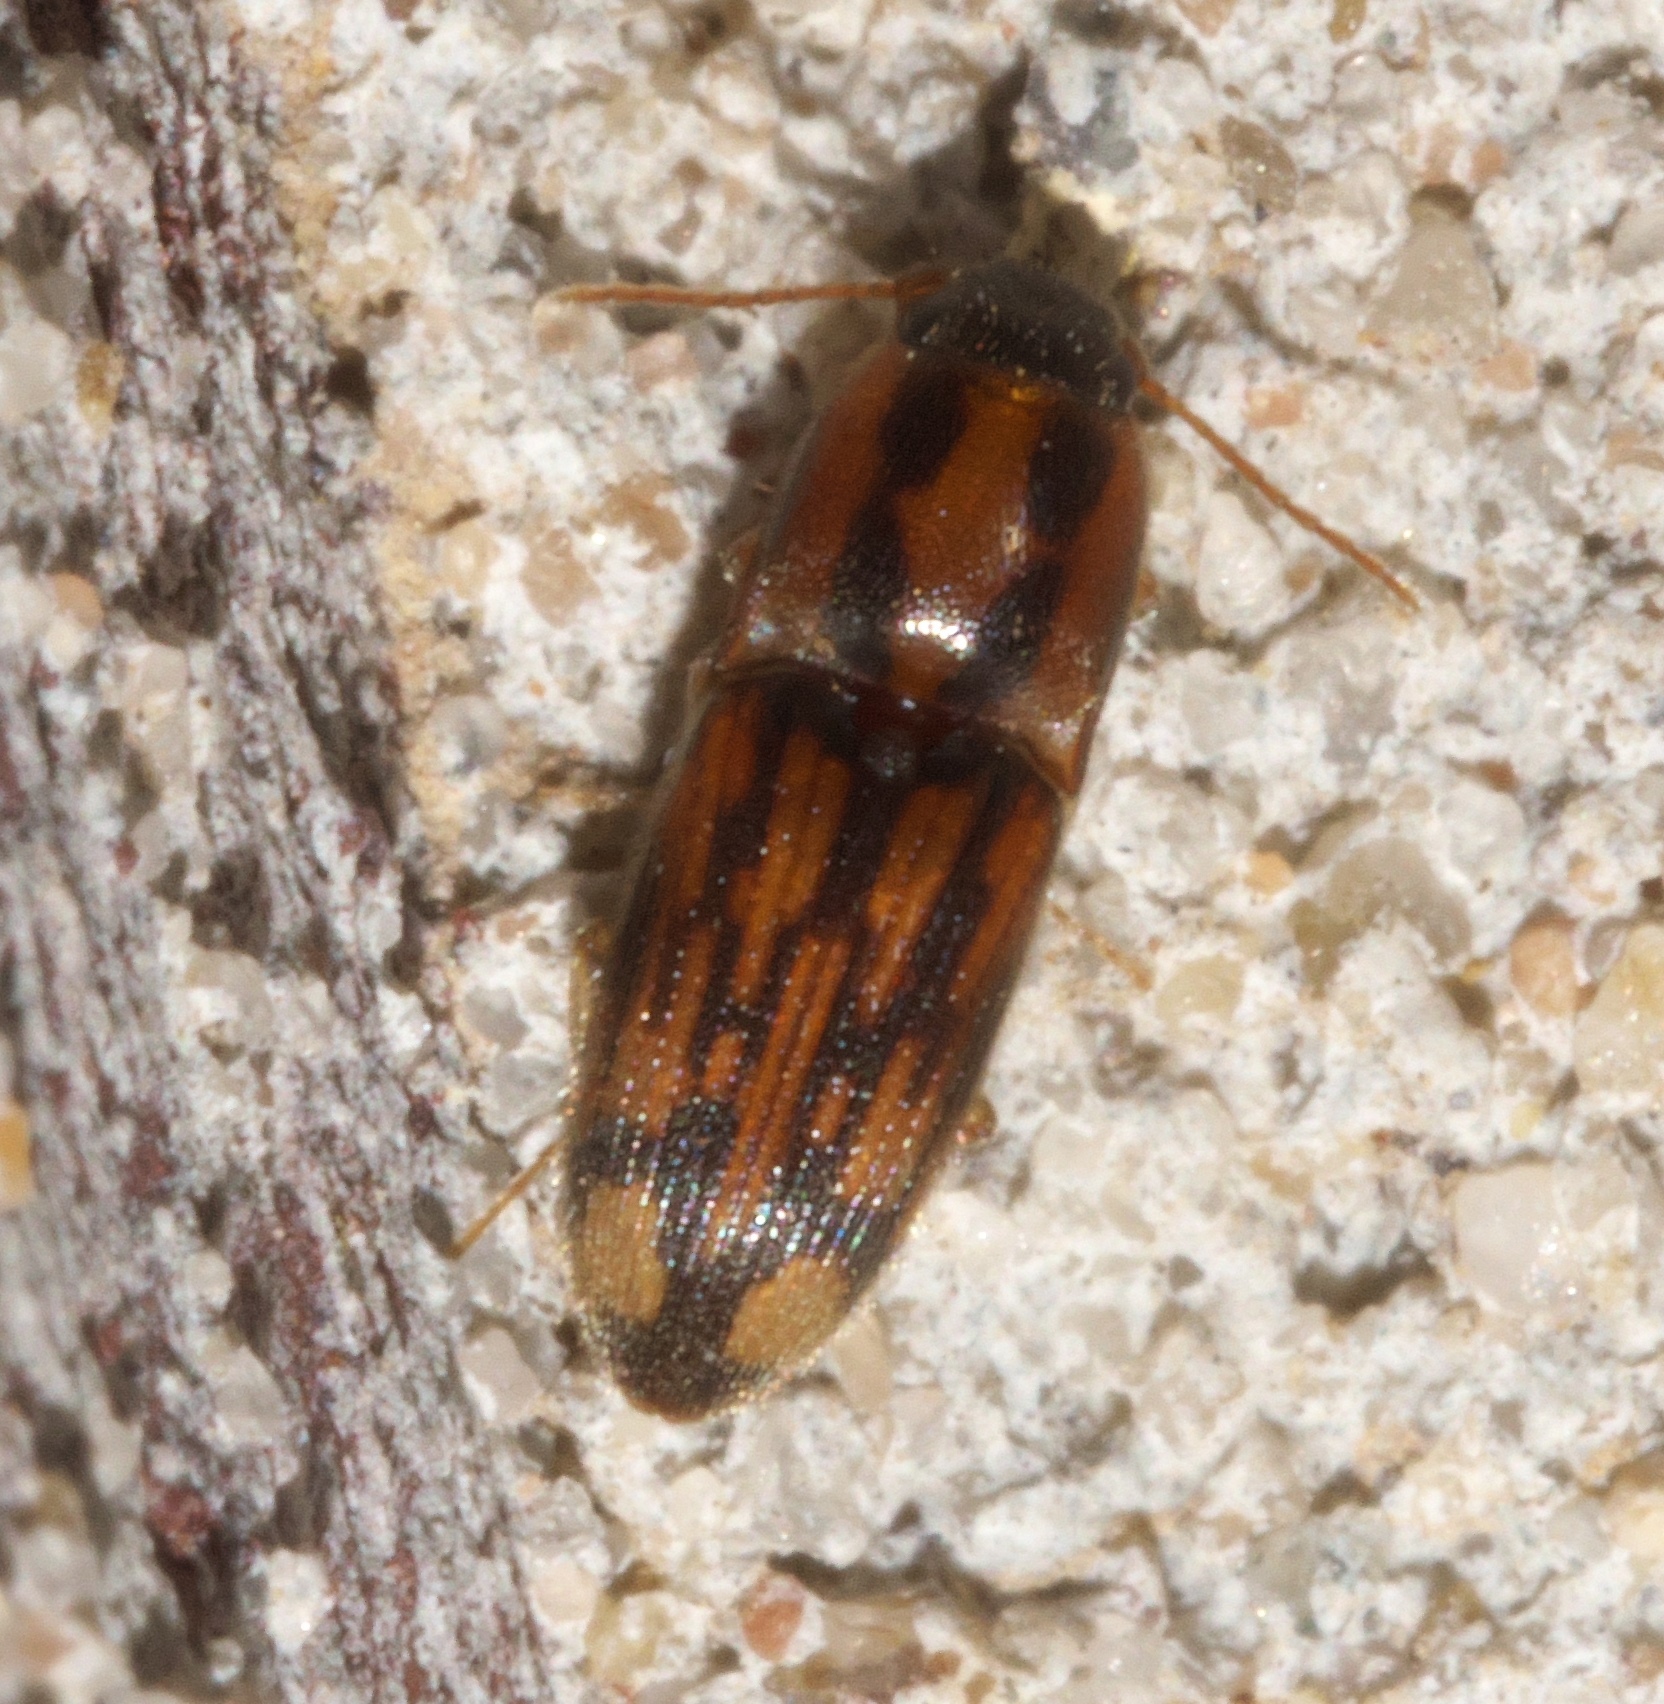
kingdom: Animalia
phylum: Arthropoda
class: Insecta
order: Coleoptera
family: Elateridae
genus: Monocrepidius
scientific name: Monocrepidius bellus
